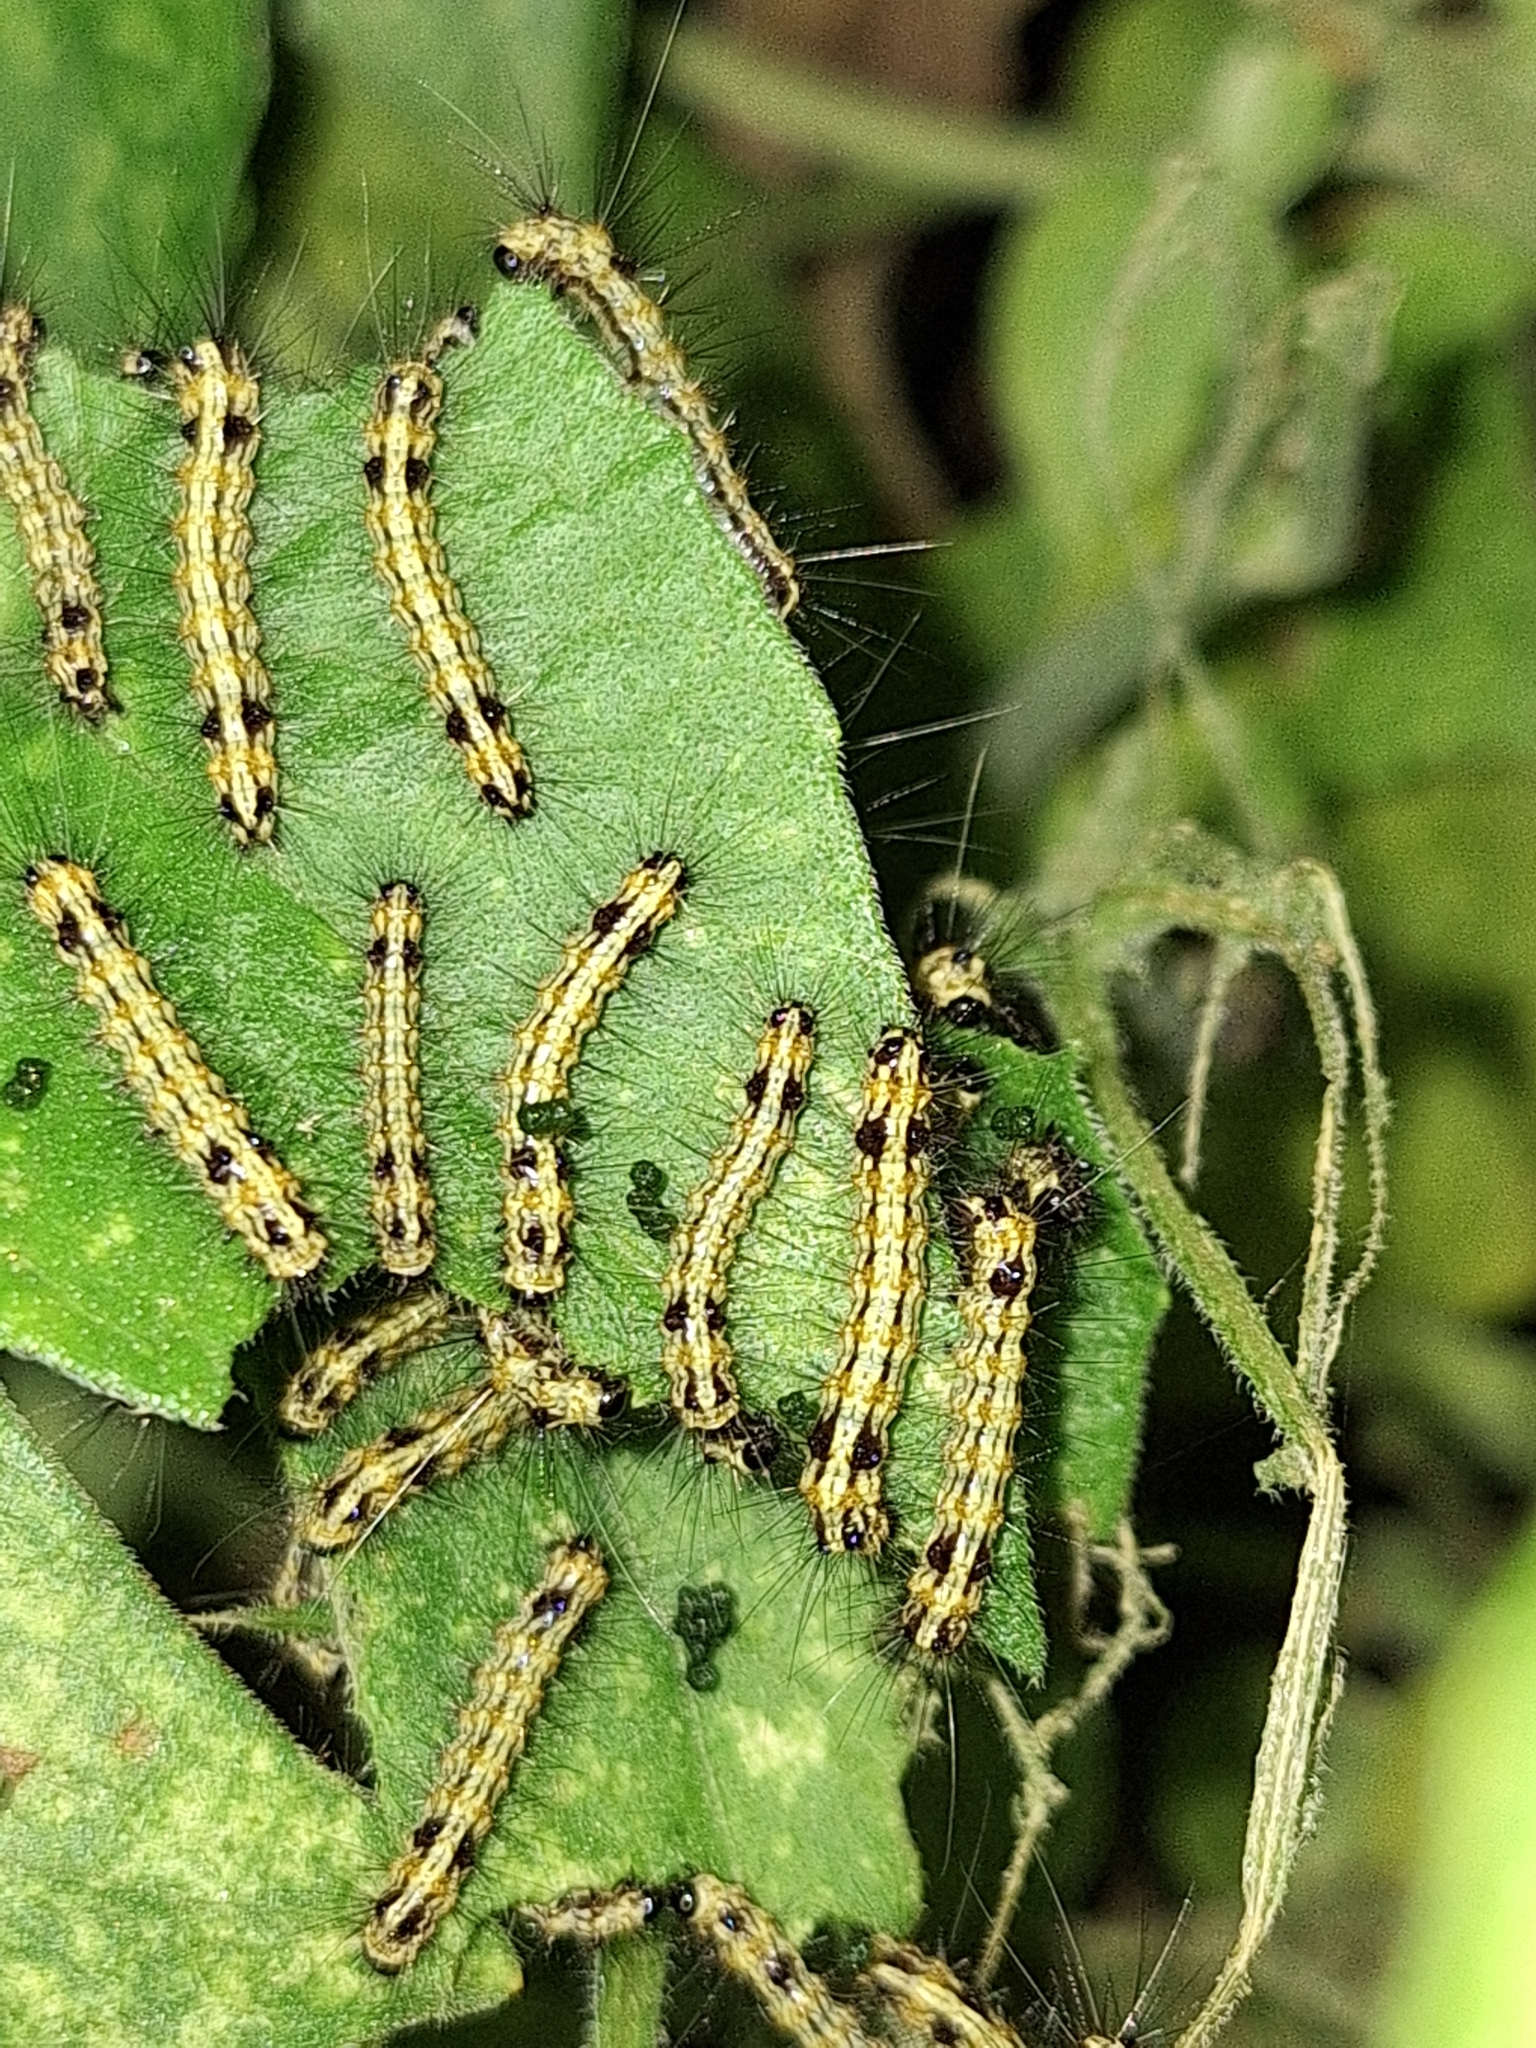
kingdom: Animalia
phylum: Arthropoda
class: Insecta
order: Lepidoptera
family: Erebidae
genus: Dysschema
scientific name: Dysschema sacrifica
